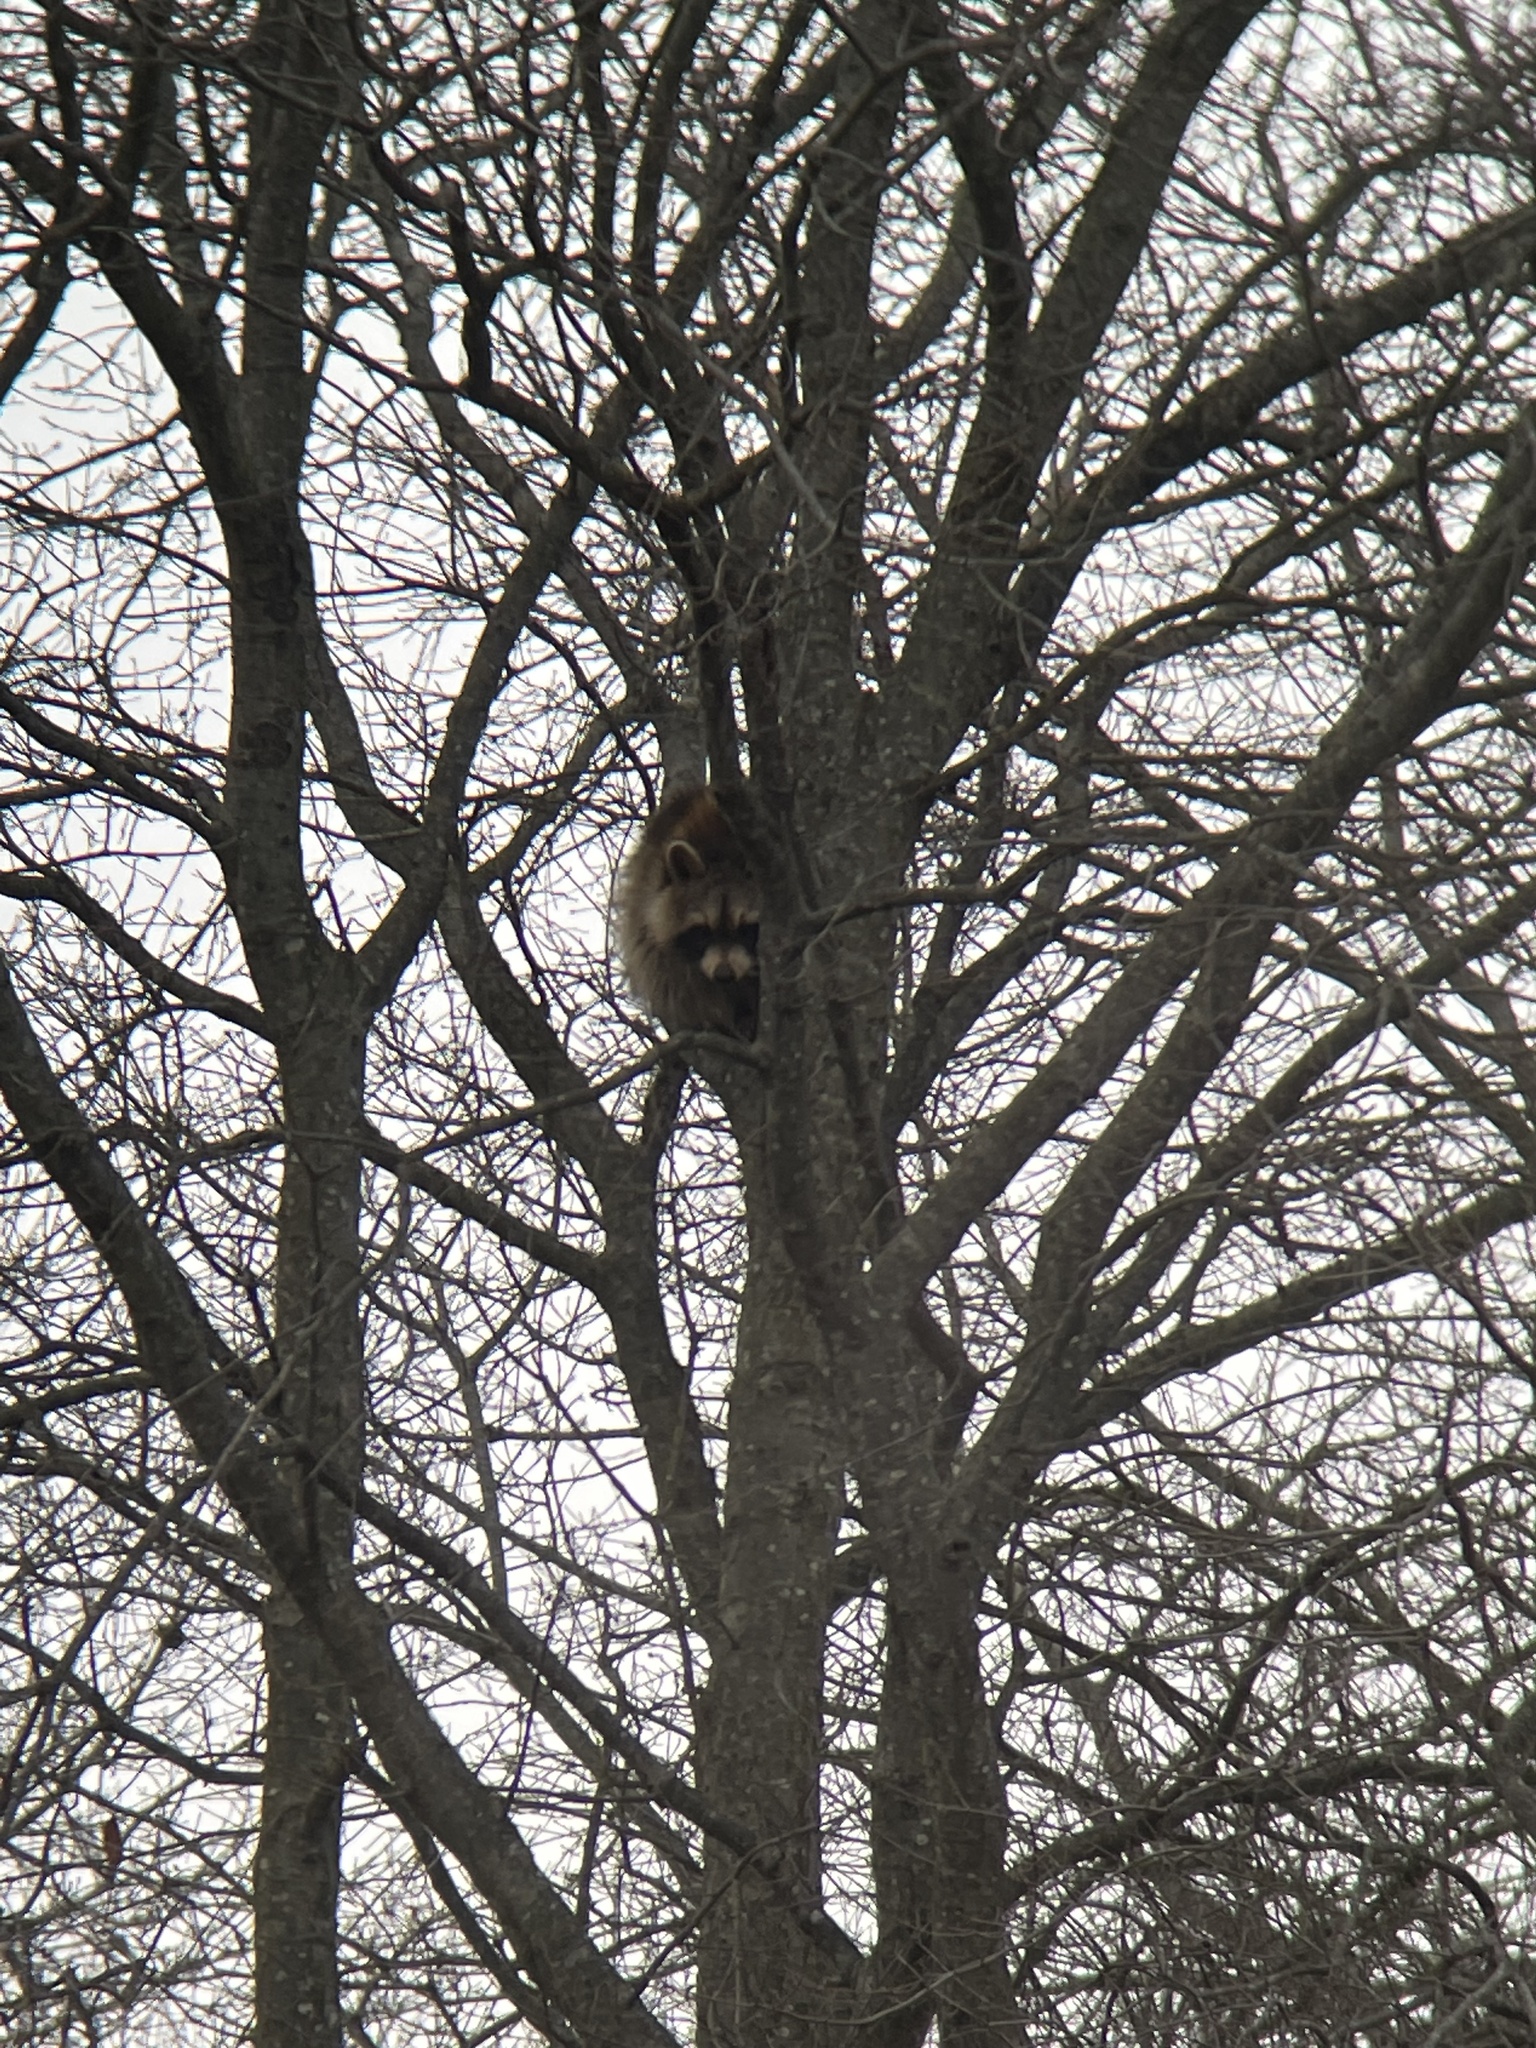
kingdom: Animalia
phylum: Chordata
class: Mammalia
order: Carnivora
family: Procyonidae
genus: Procyon
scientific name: Procyon lotor
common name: Raccoon
